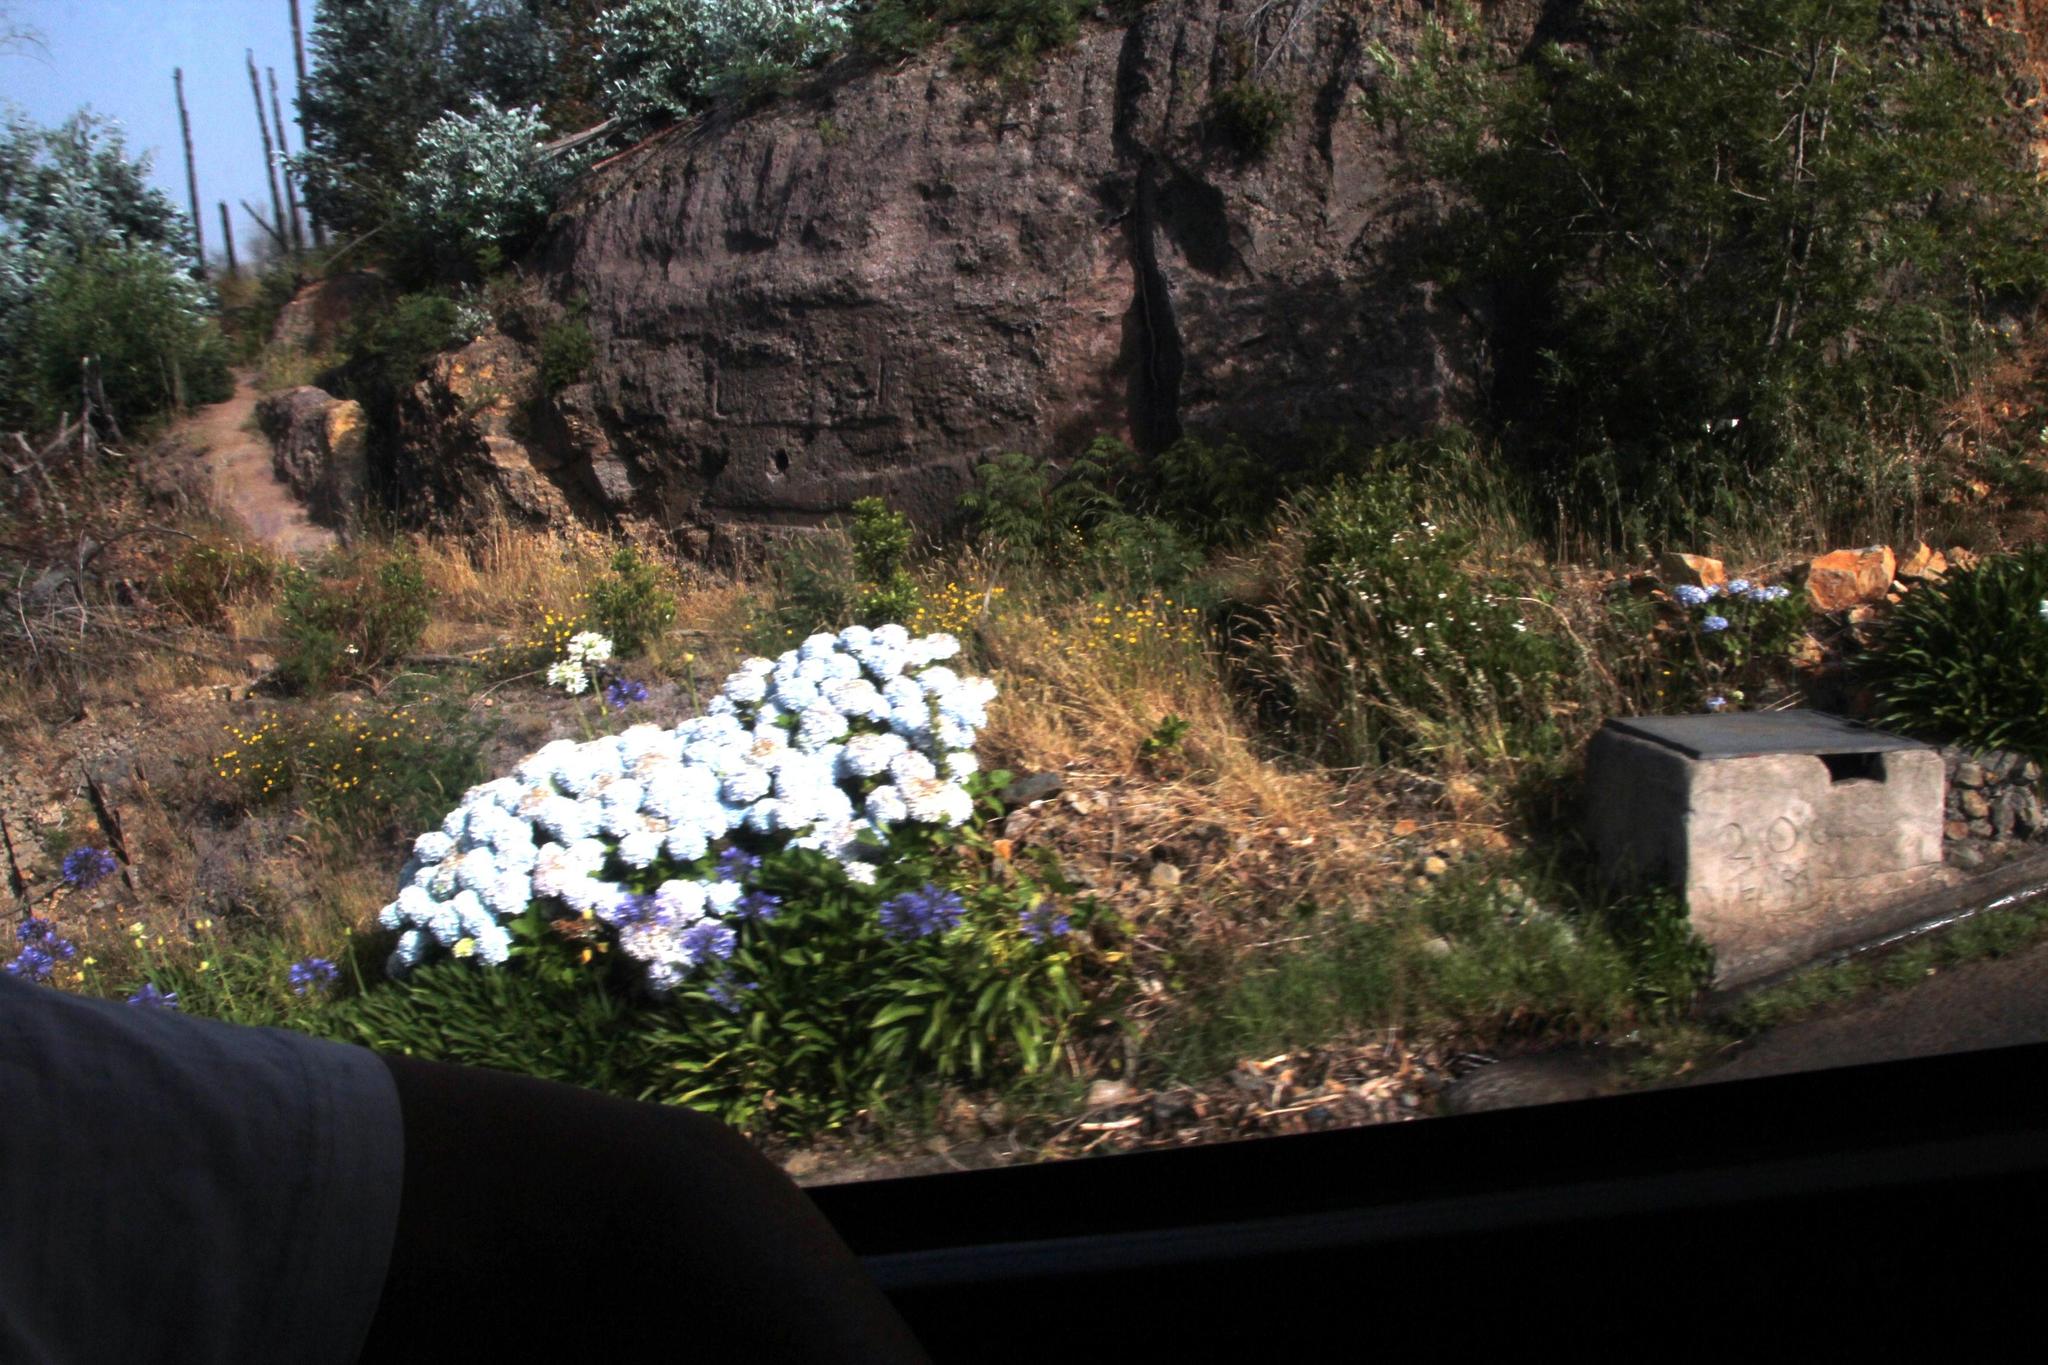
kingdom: Plantae
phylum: Tracheophyta
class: Liliopsida
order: Asparagales
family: Amaryllidaceae
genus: Agapanthus
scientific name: Agapanthus praecox
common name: African-lily
